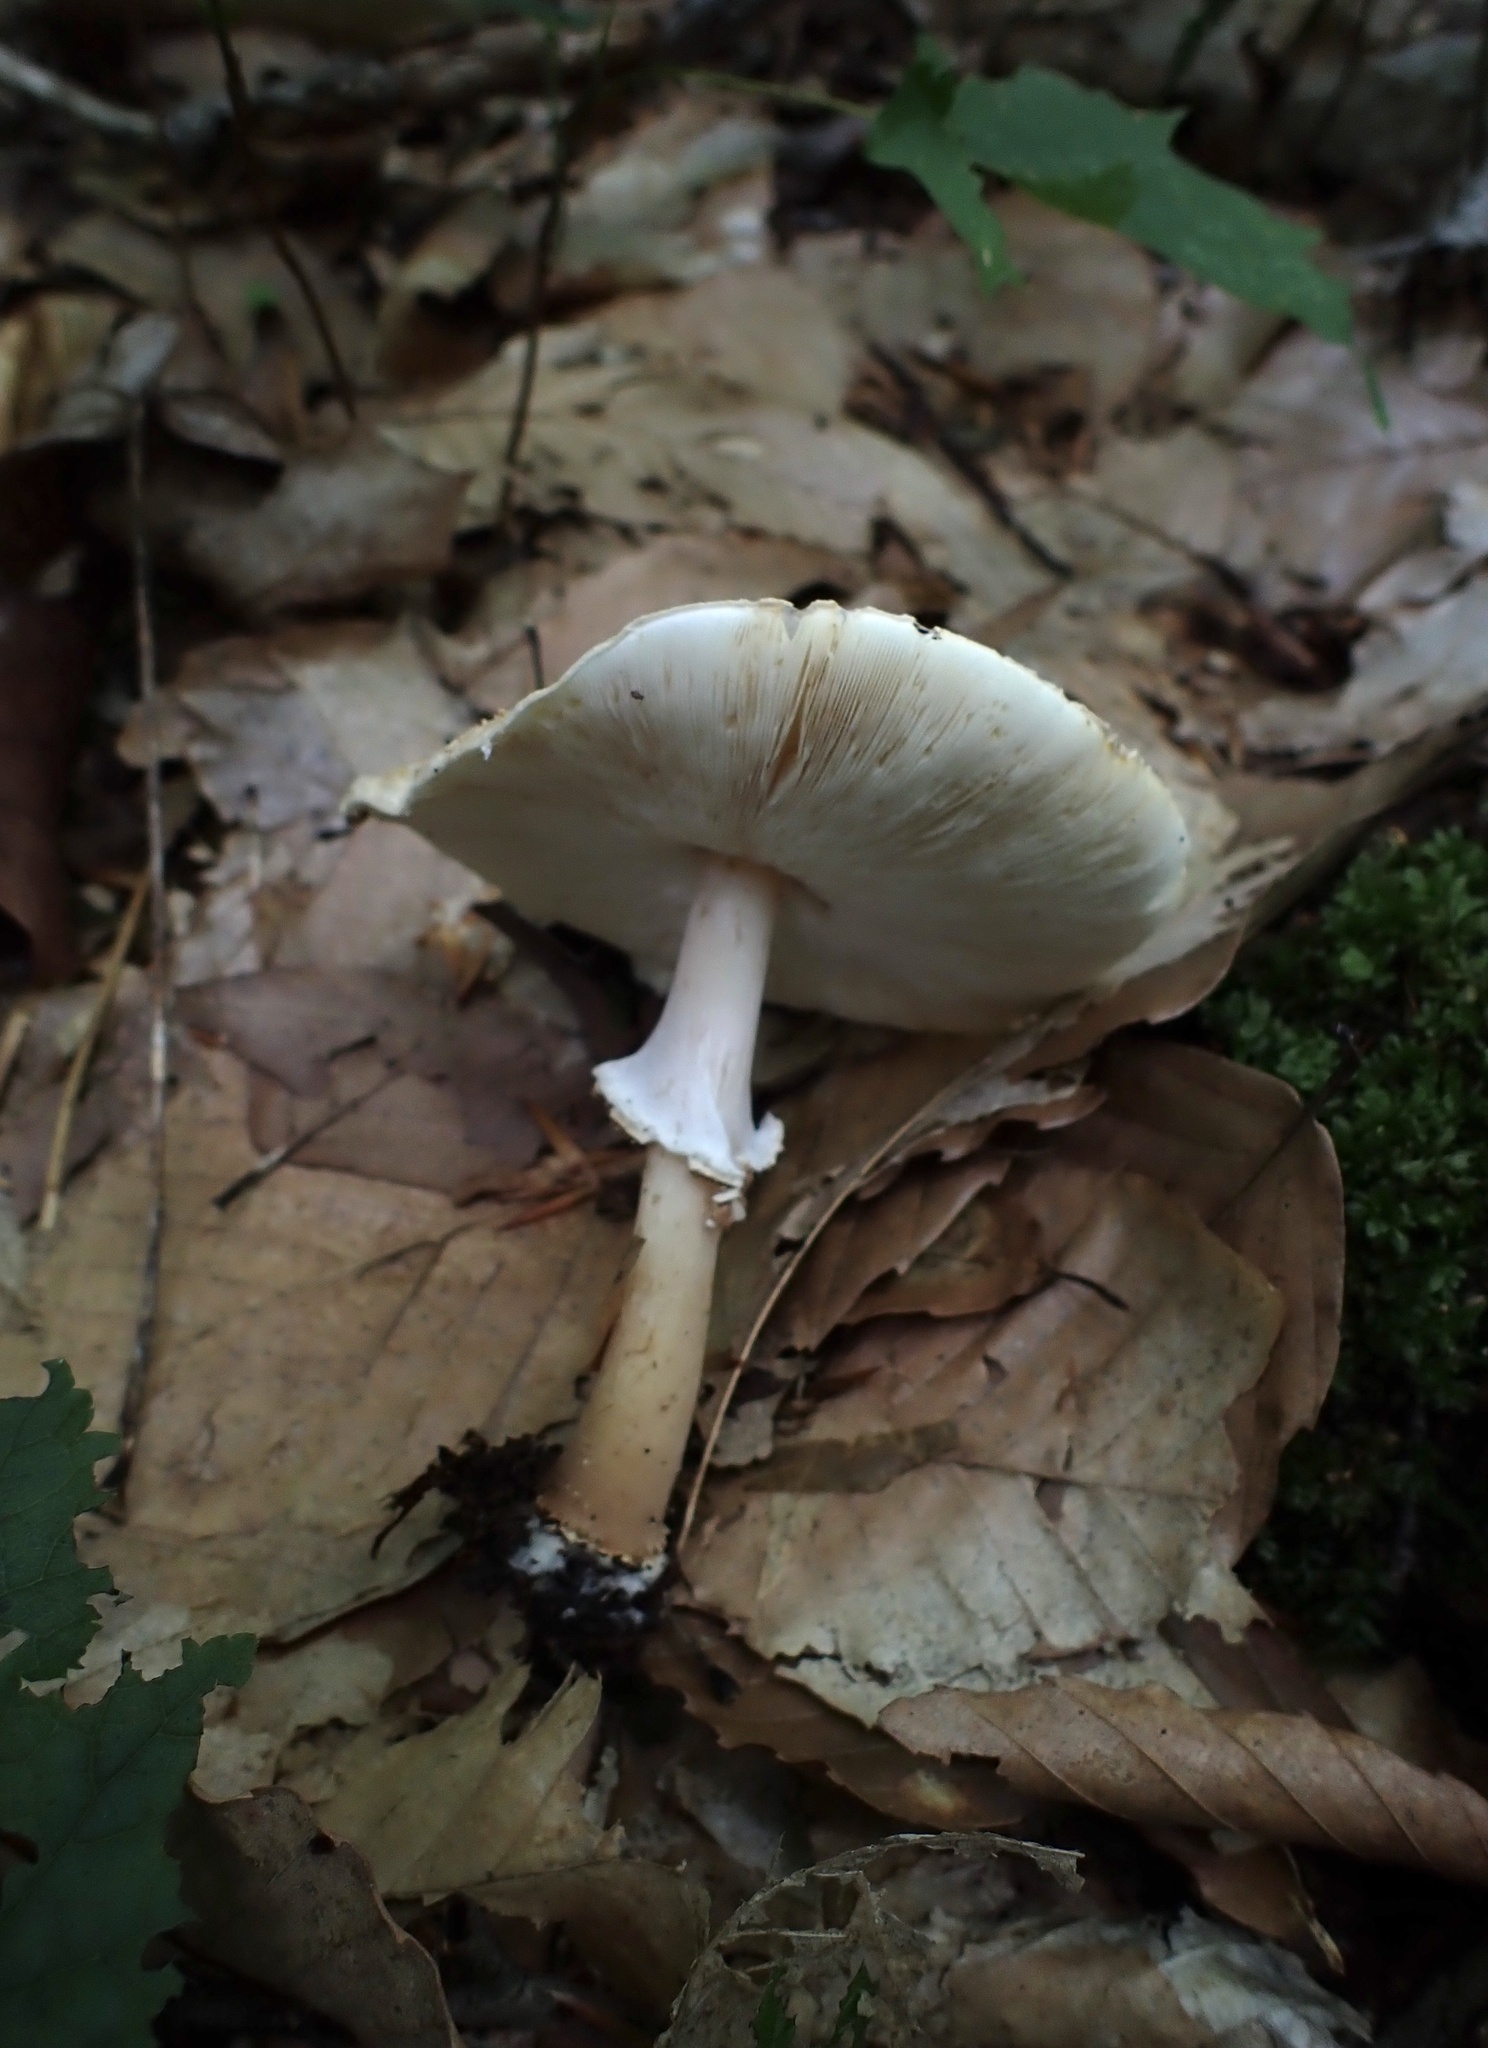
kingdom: Fungi
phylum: Basidiomycota
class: Agaricomycetes
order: Agaricales
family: Agaricaceae
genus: Echinoderma
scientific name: Echinoderma asperum
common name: Freckled dapperling
